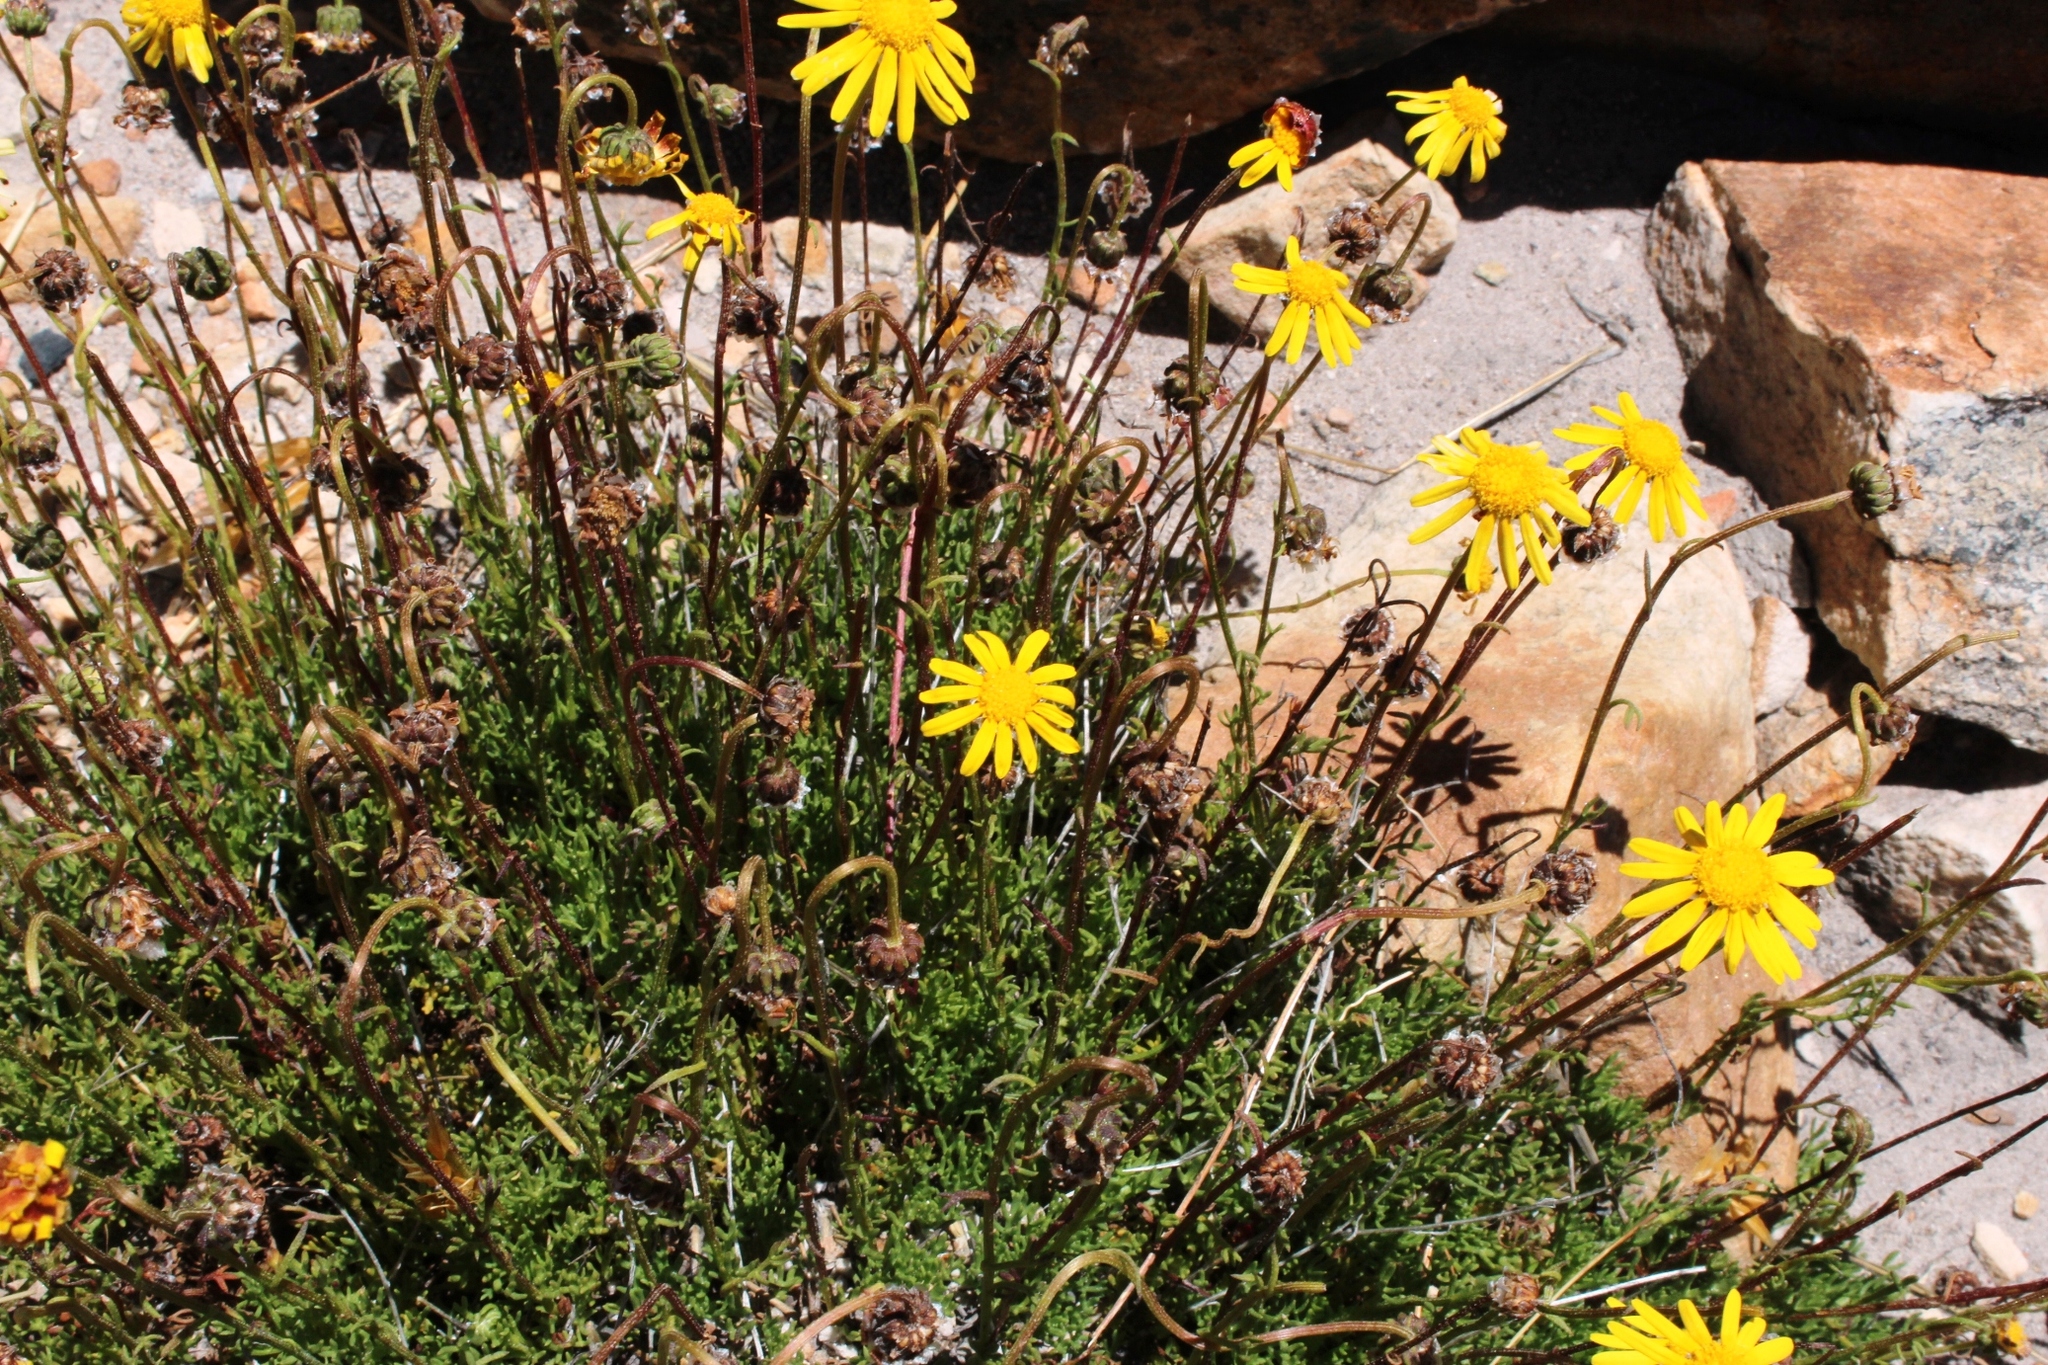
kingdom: Plantae
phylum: Tracheophyta
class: Magnoliopsida
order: Asterales
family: Asteraceae
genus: Ursinia
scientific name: Ursinia nudicaulis
